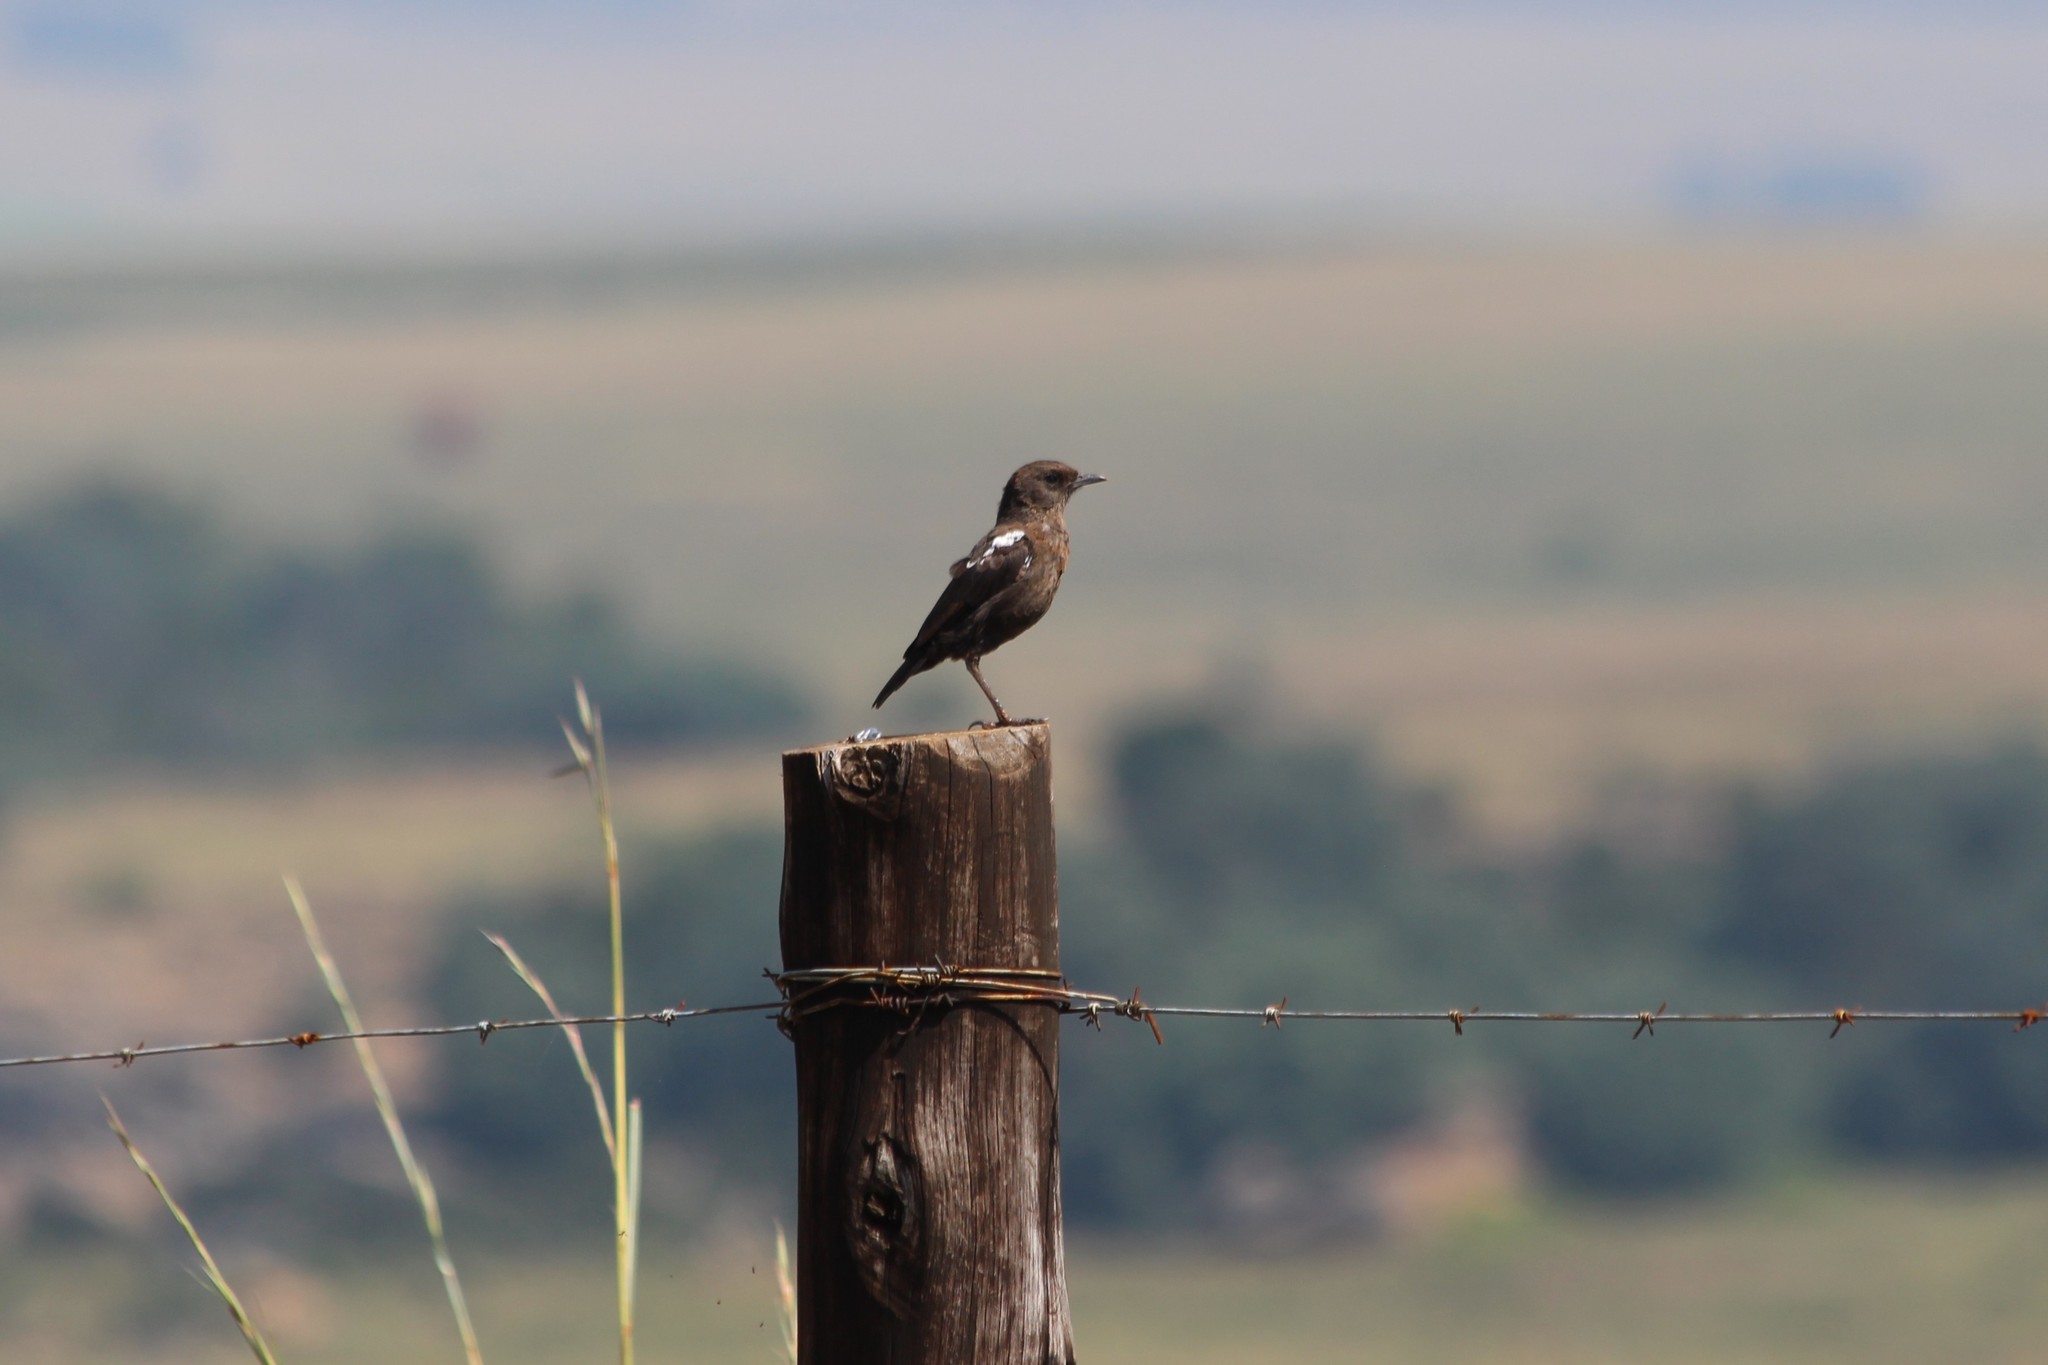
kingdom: Animalia
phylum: Chordata
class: Aves
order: Passeriformes
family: Muscicapidae
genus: Myrmecocichla
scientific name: Myrmecocichla formicivora
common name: Ant-eating chat
